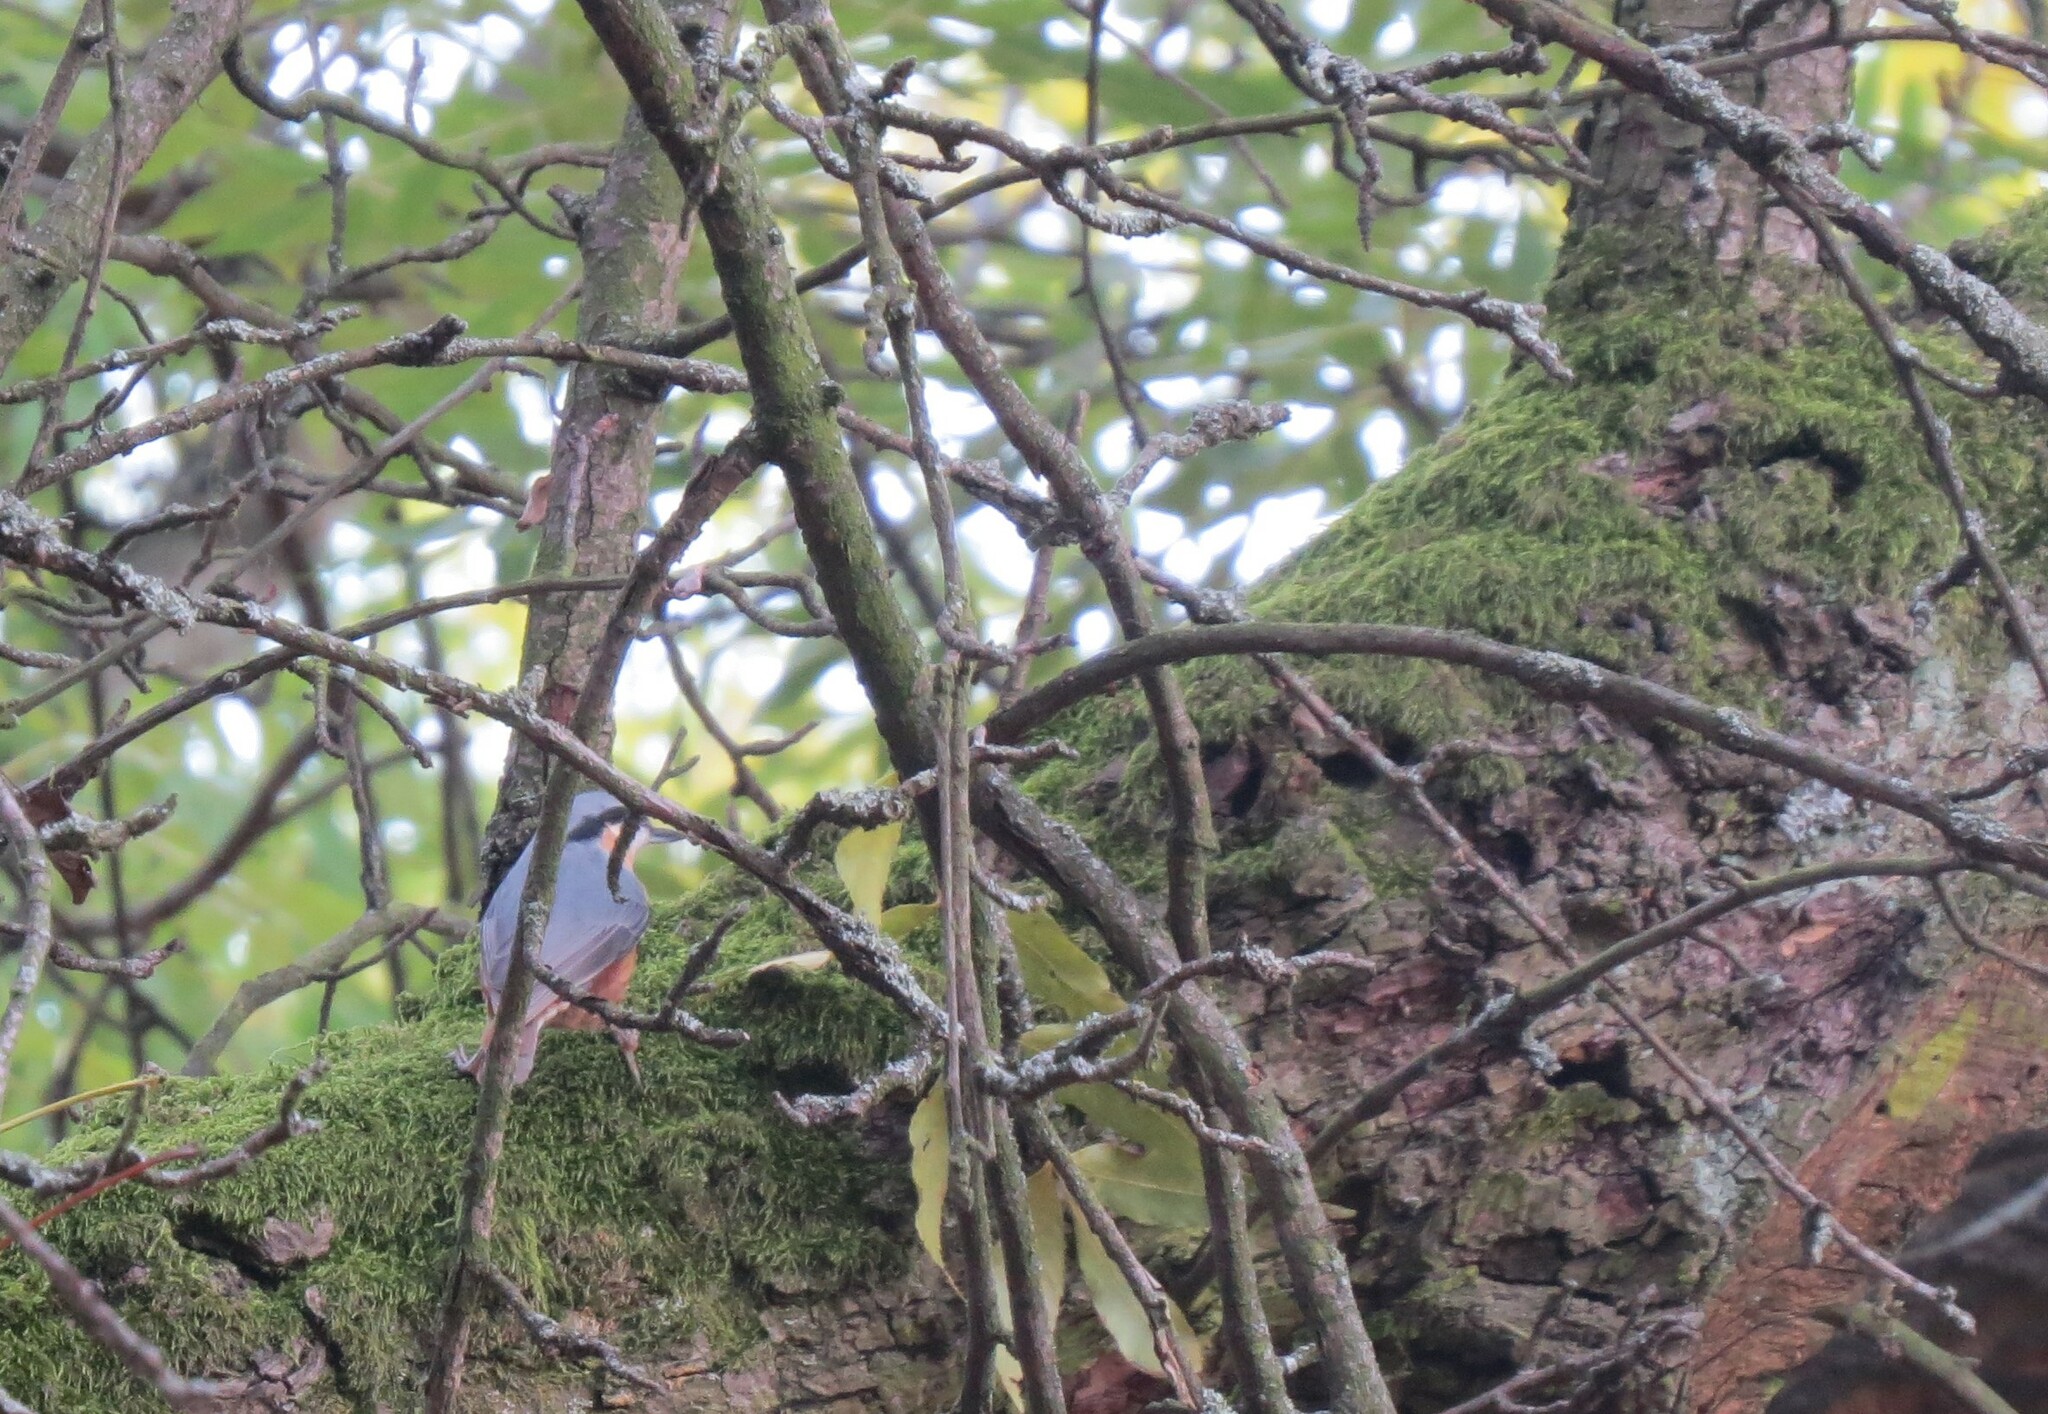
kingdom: Animalia
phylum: Chordata
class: Aves
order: Passeriformes
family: Sittidae
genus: Sitta
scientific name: Sitta europaea
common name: Eurasian nuthatch
